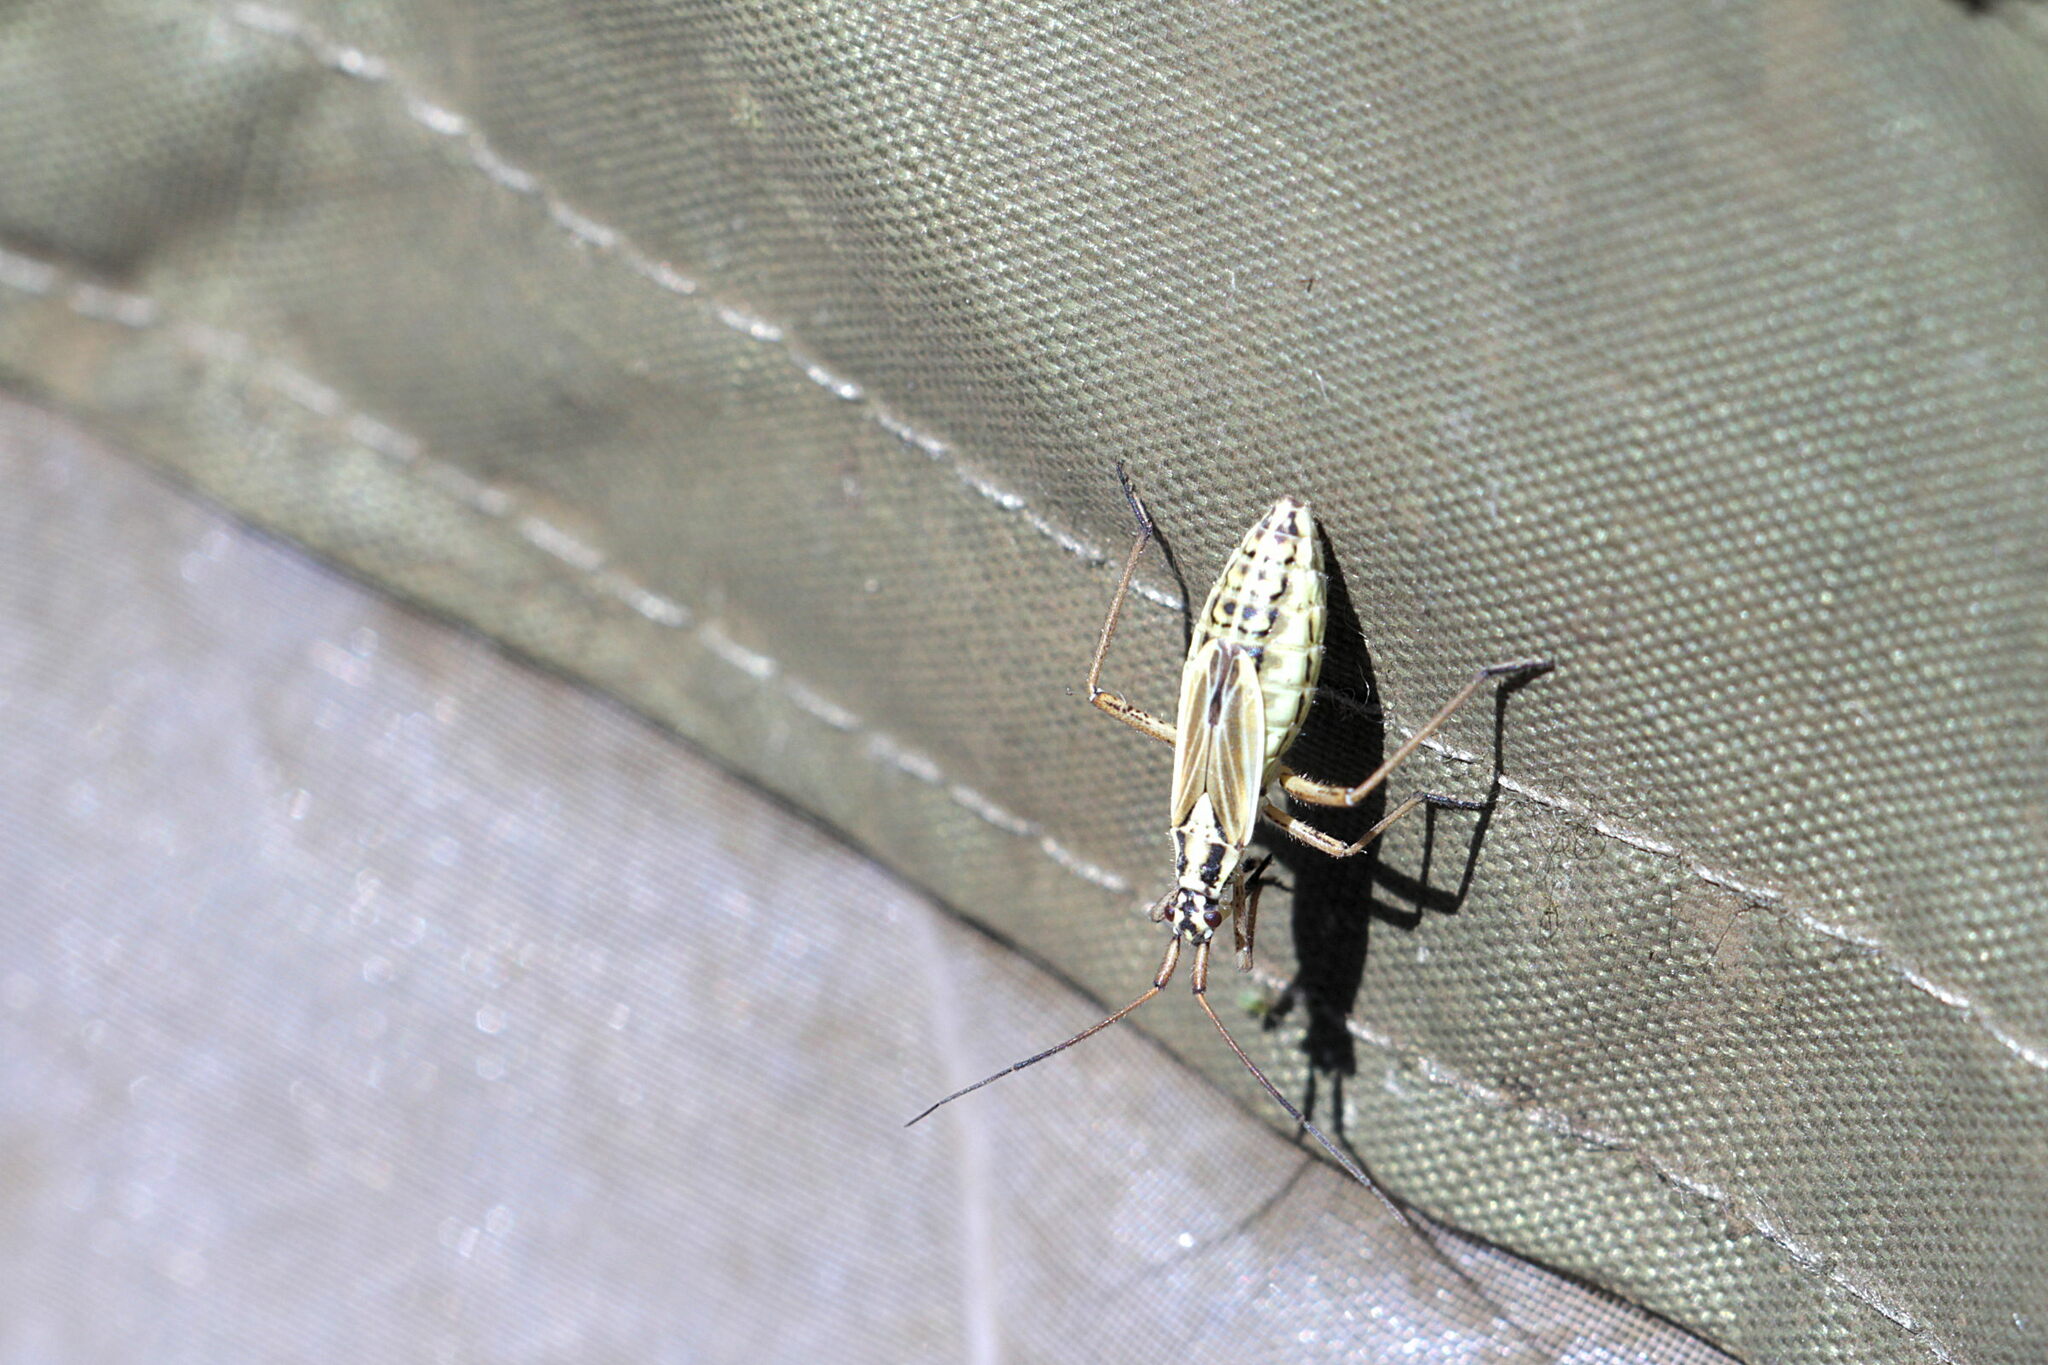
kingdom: Animalia
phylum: Arthropoda
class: Insecta
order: Hemiptera
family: Miridae
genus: Leptopterna
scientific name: Leptopterna dolabrata
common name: Meadow plant bug
